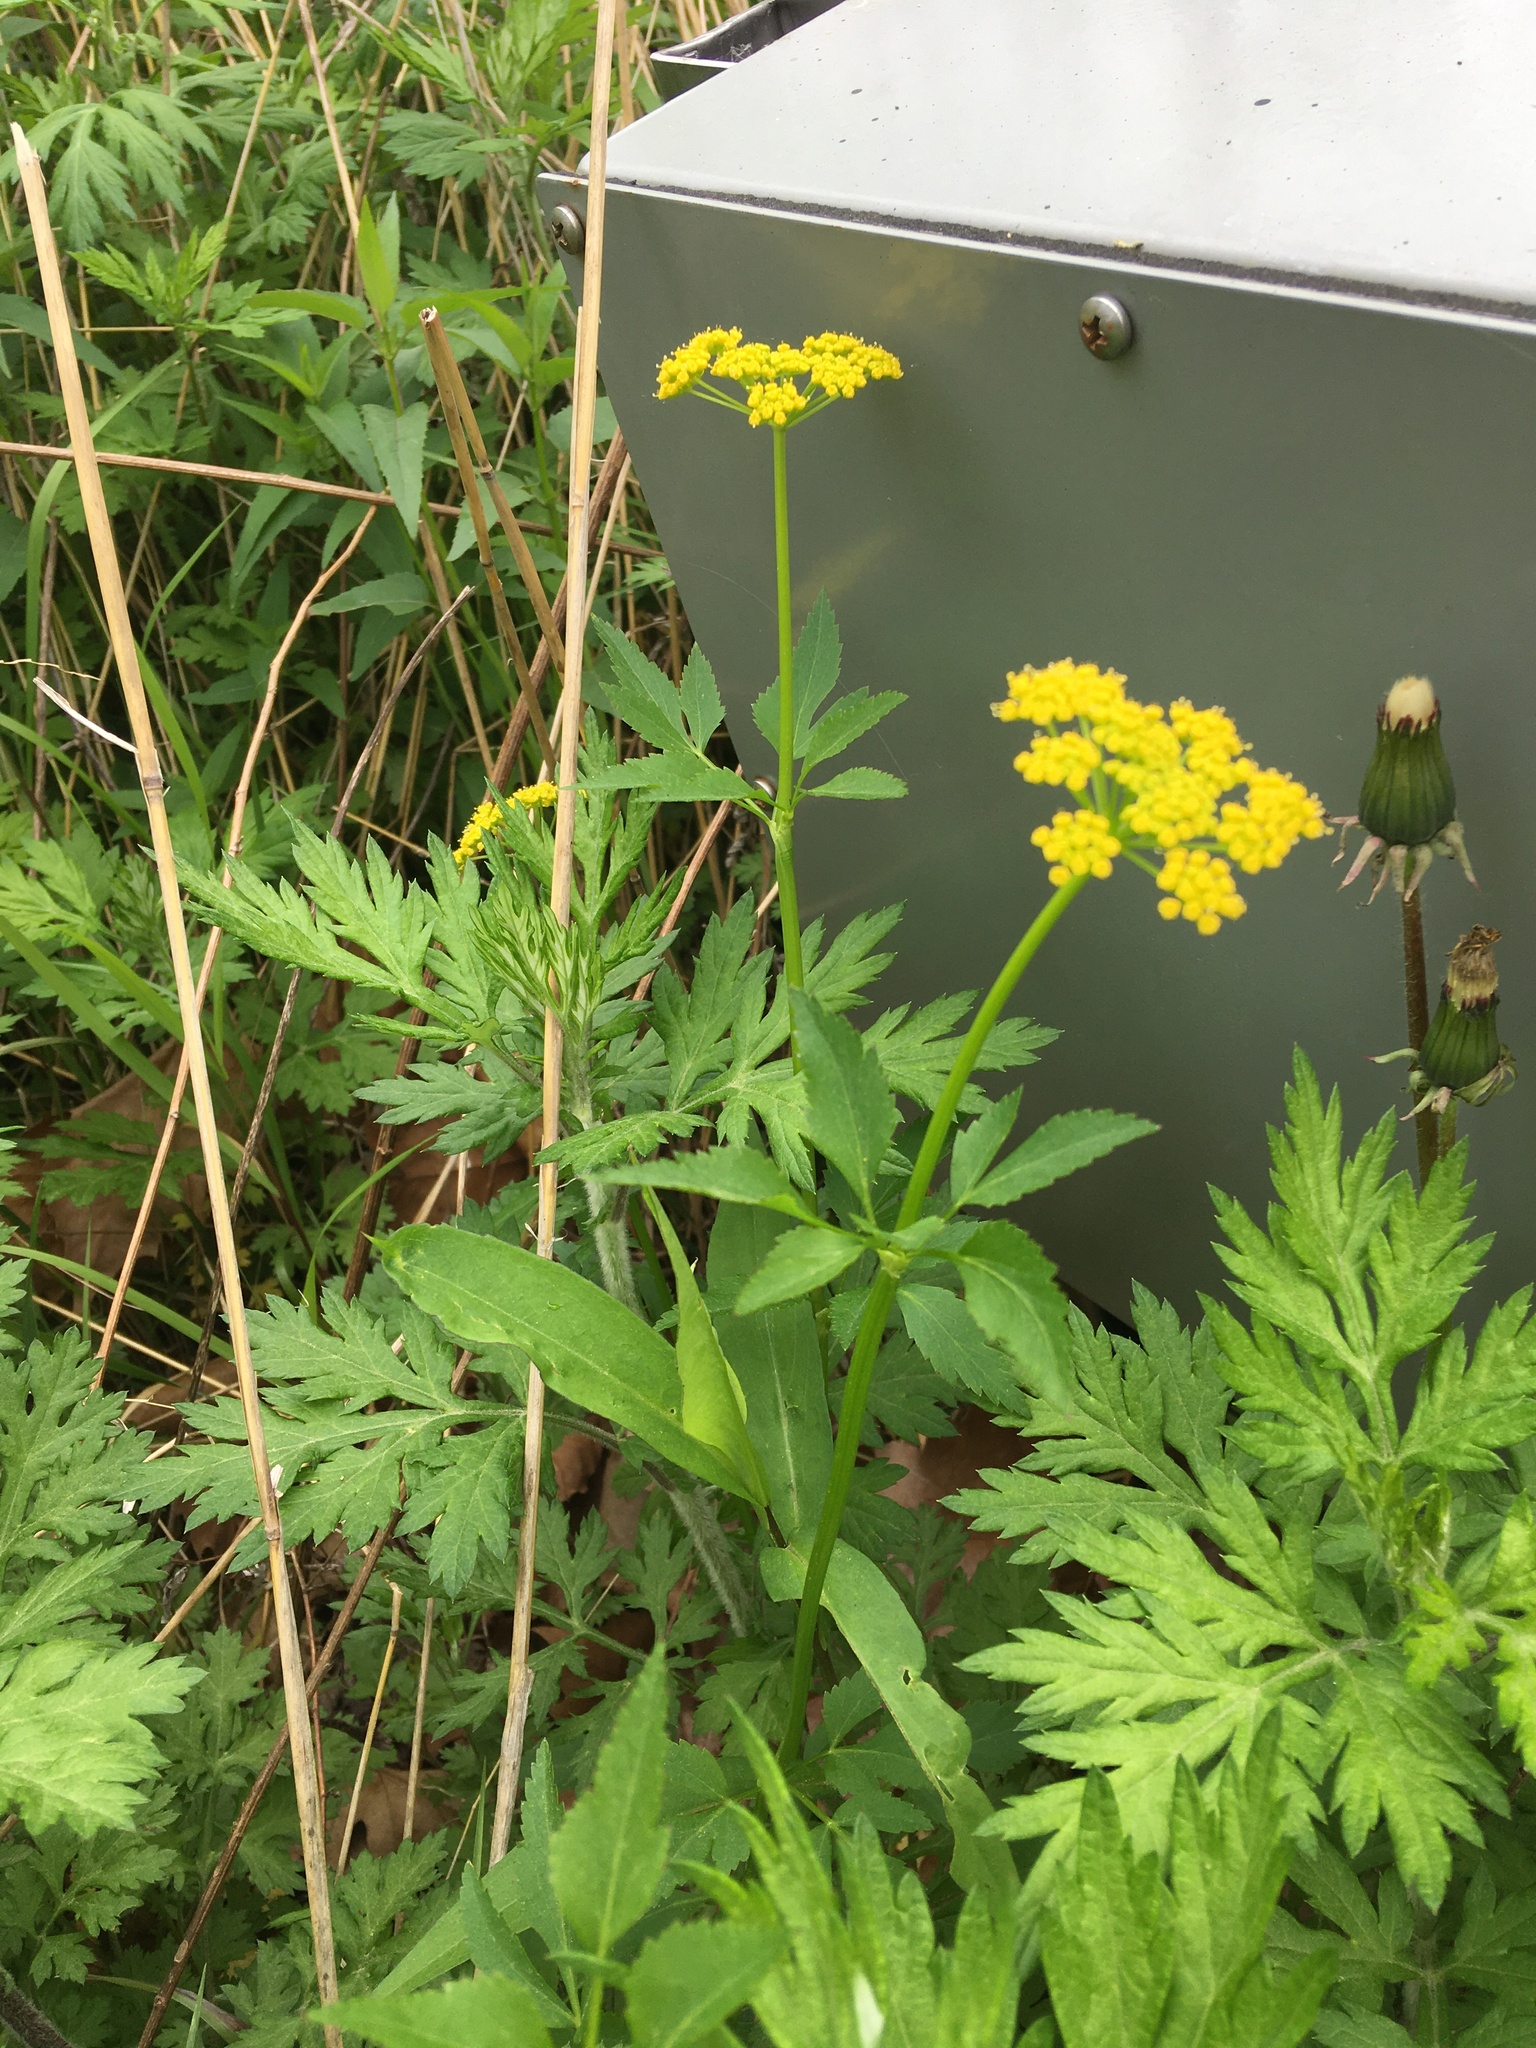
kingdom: Plantae
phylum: Tracheophyta
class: Magnoliopsida
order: Apiales
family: Apiaceae
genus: Zizia
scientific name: Zizia aurea
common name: Golden alexanders
